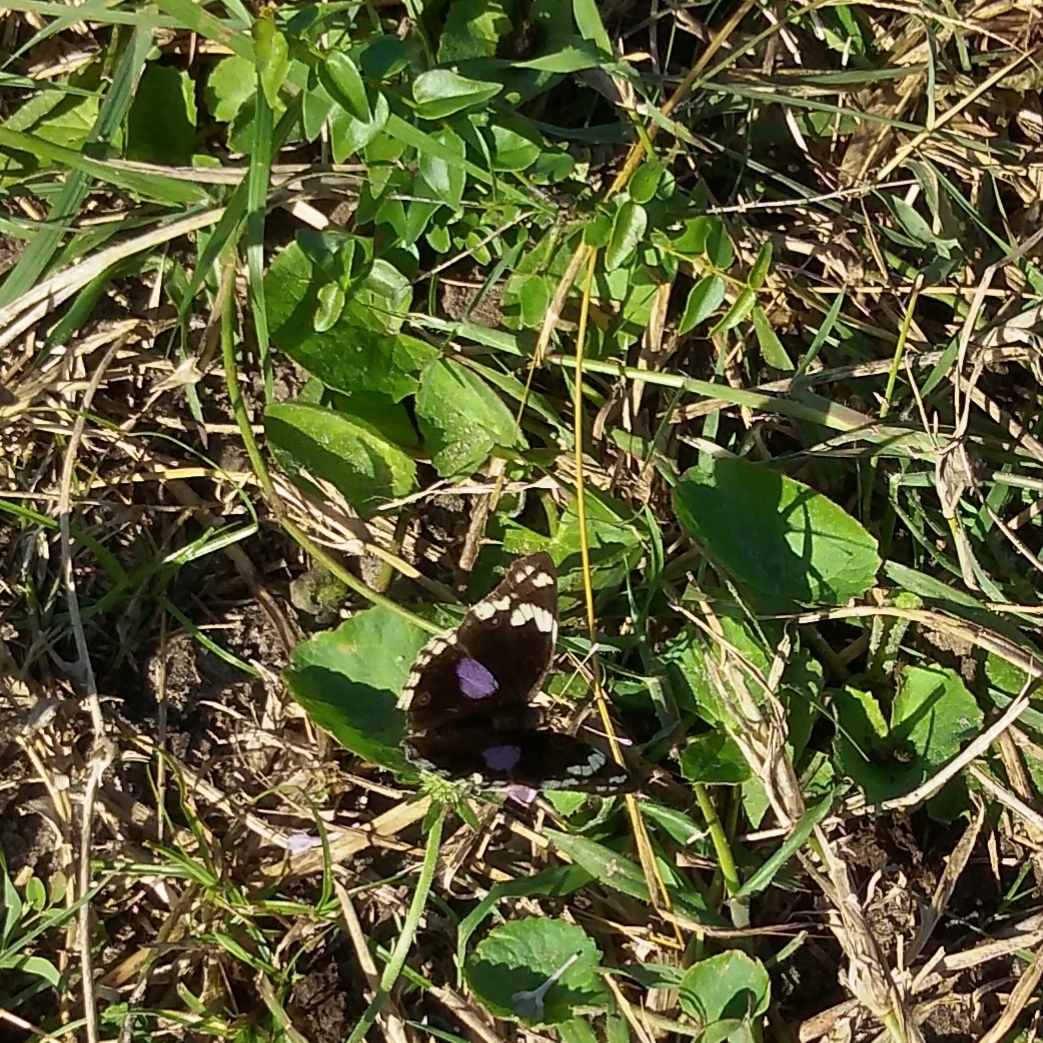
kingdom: Animalia
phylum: Arthropoda
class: Insecta
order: Lepidoptera
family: Nymphalidae
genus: Junonia
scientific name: Junonia oenone
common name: Dark blue pansy
